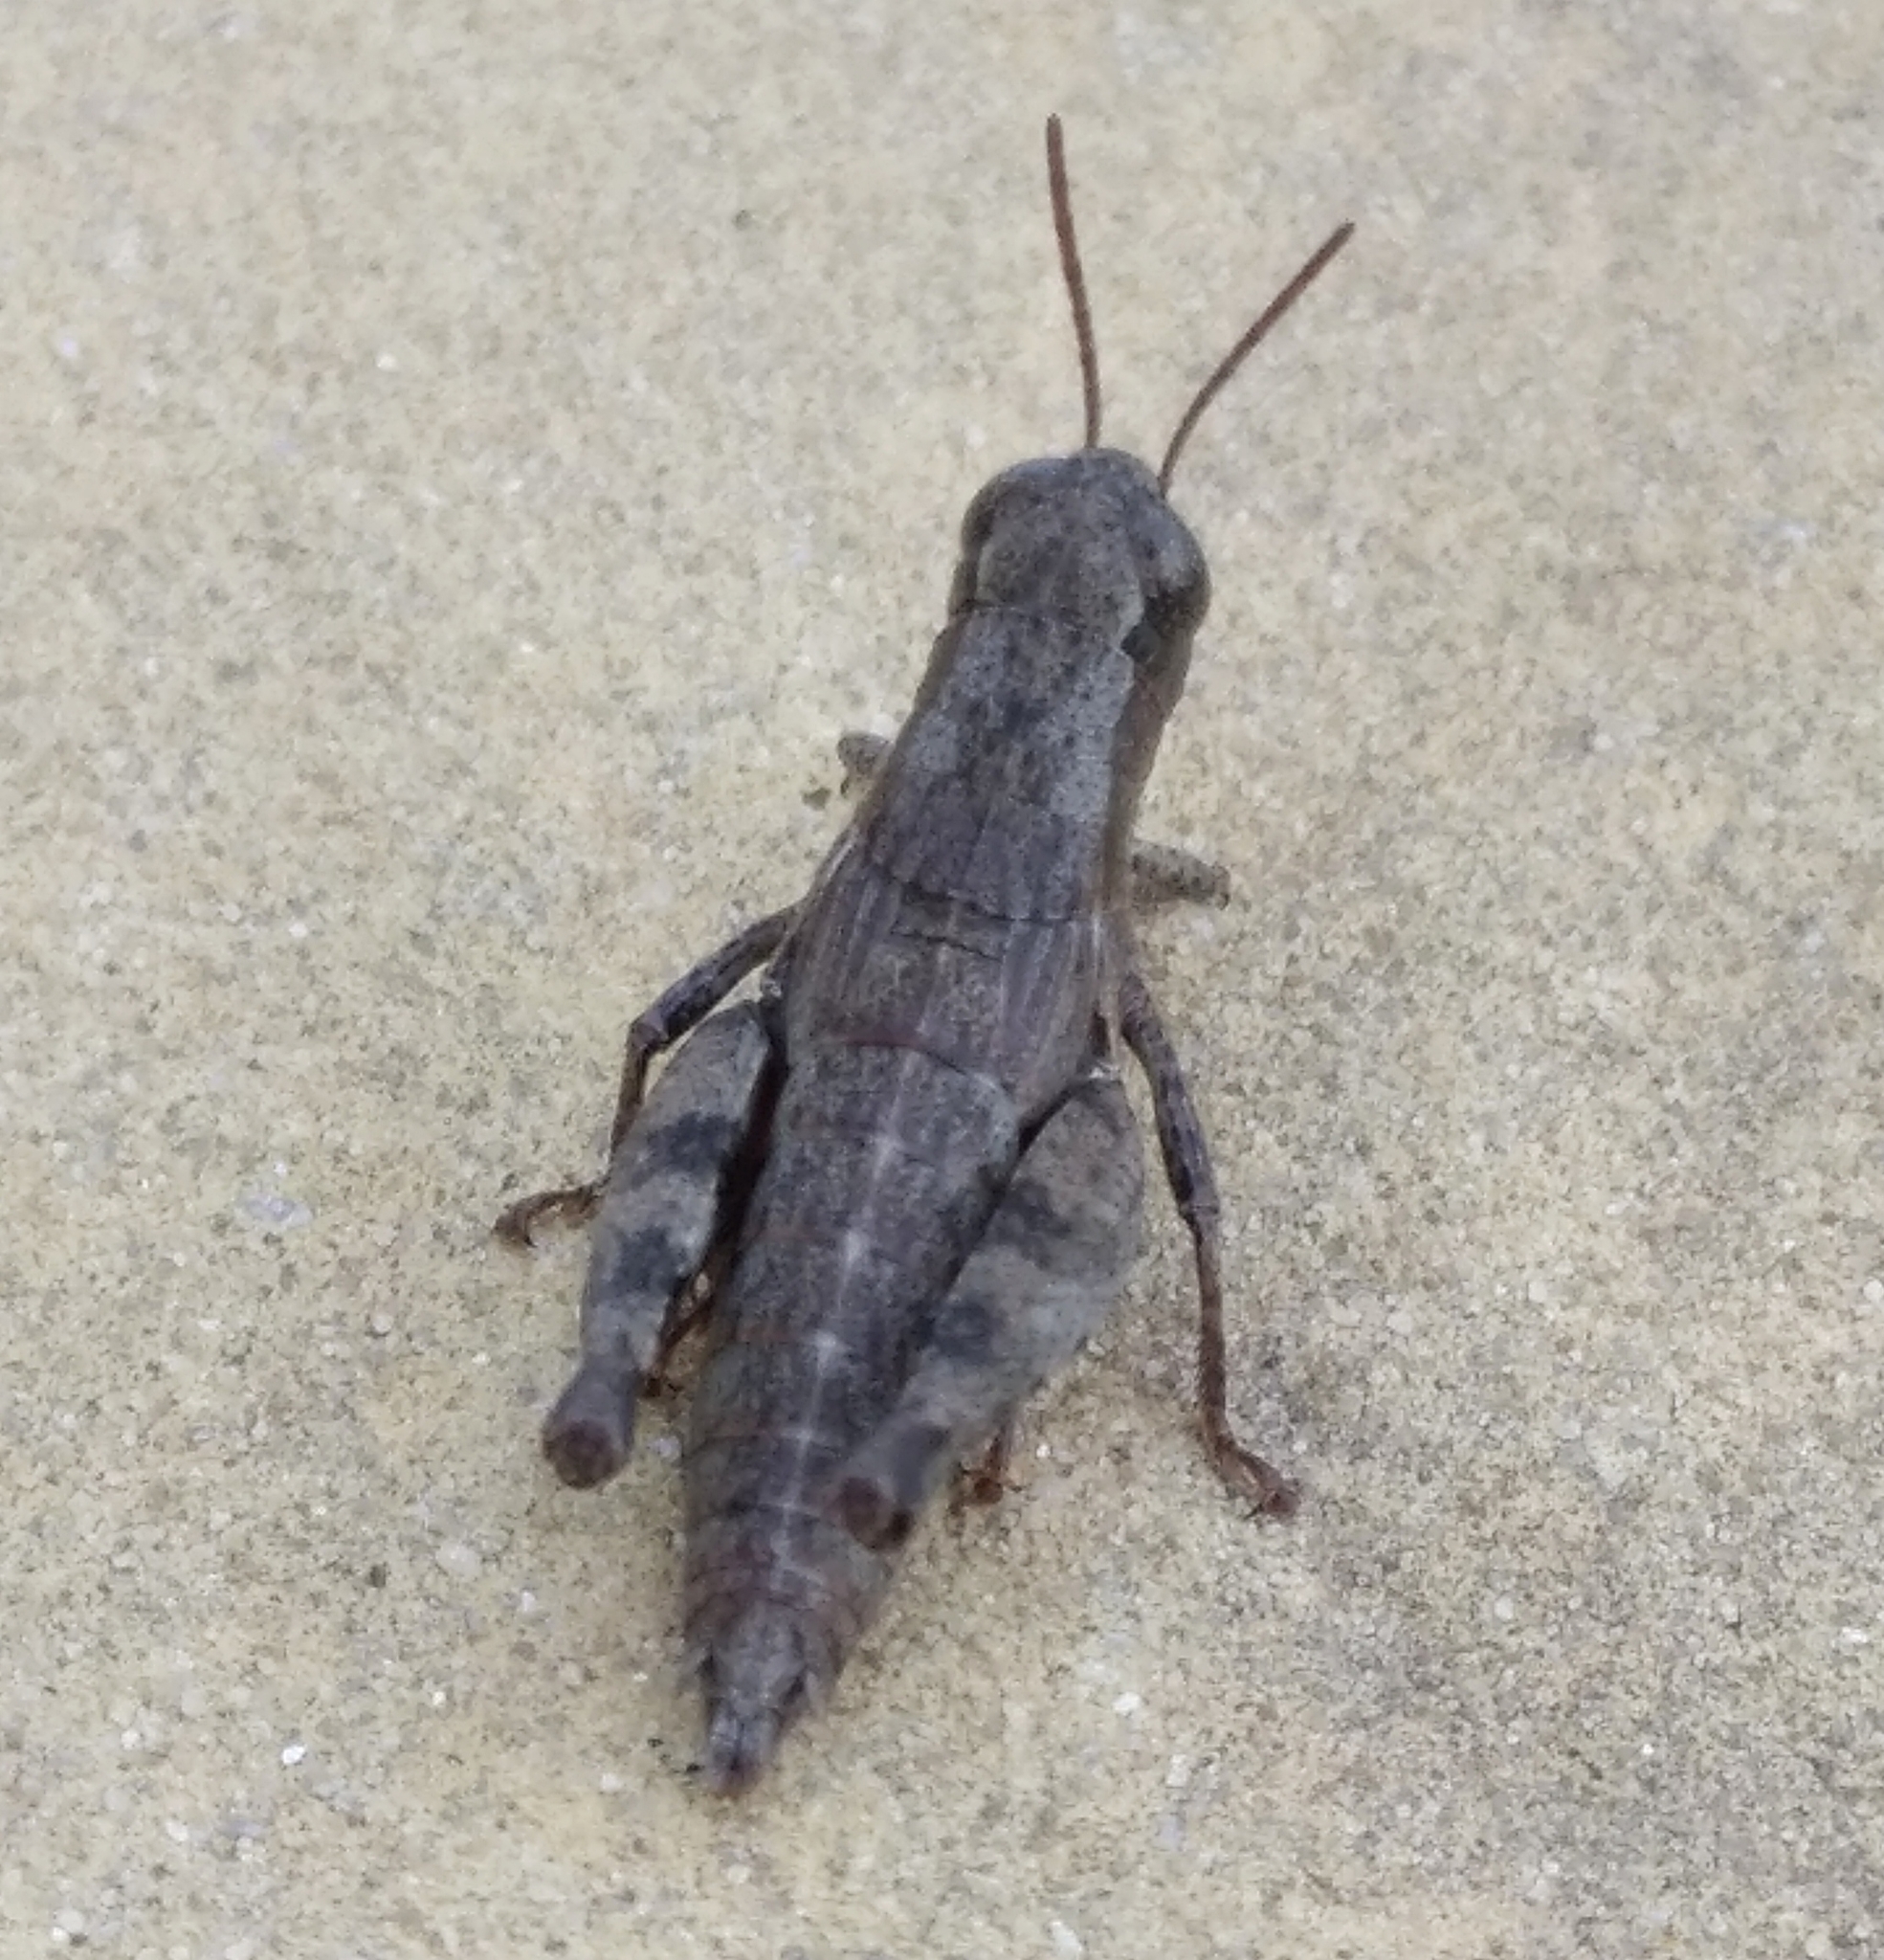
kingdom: Animalia
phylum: Arthropoda
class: Insecta
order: Orthoptera
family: Acrididae
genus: Pezotettix
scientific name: Pezotettix giornae
